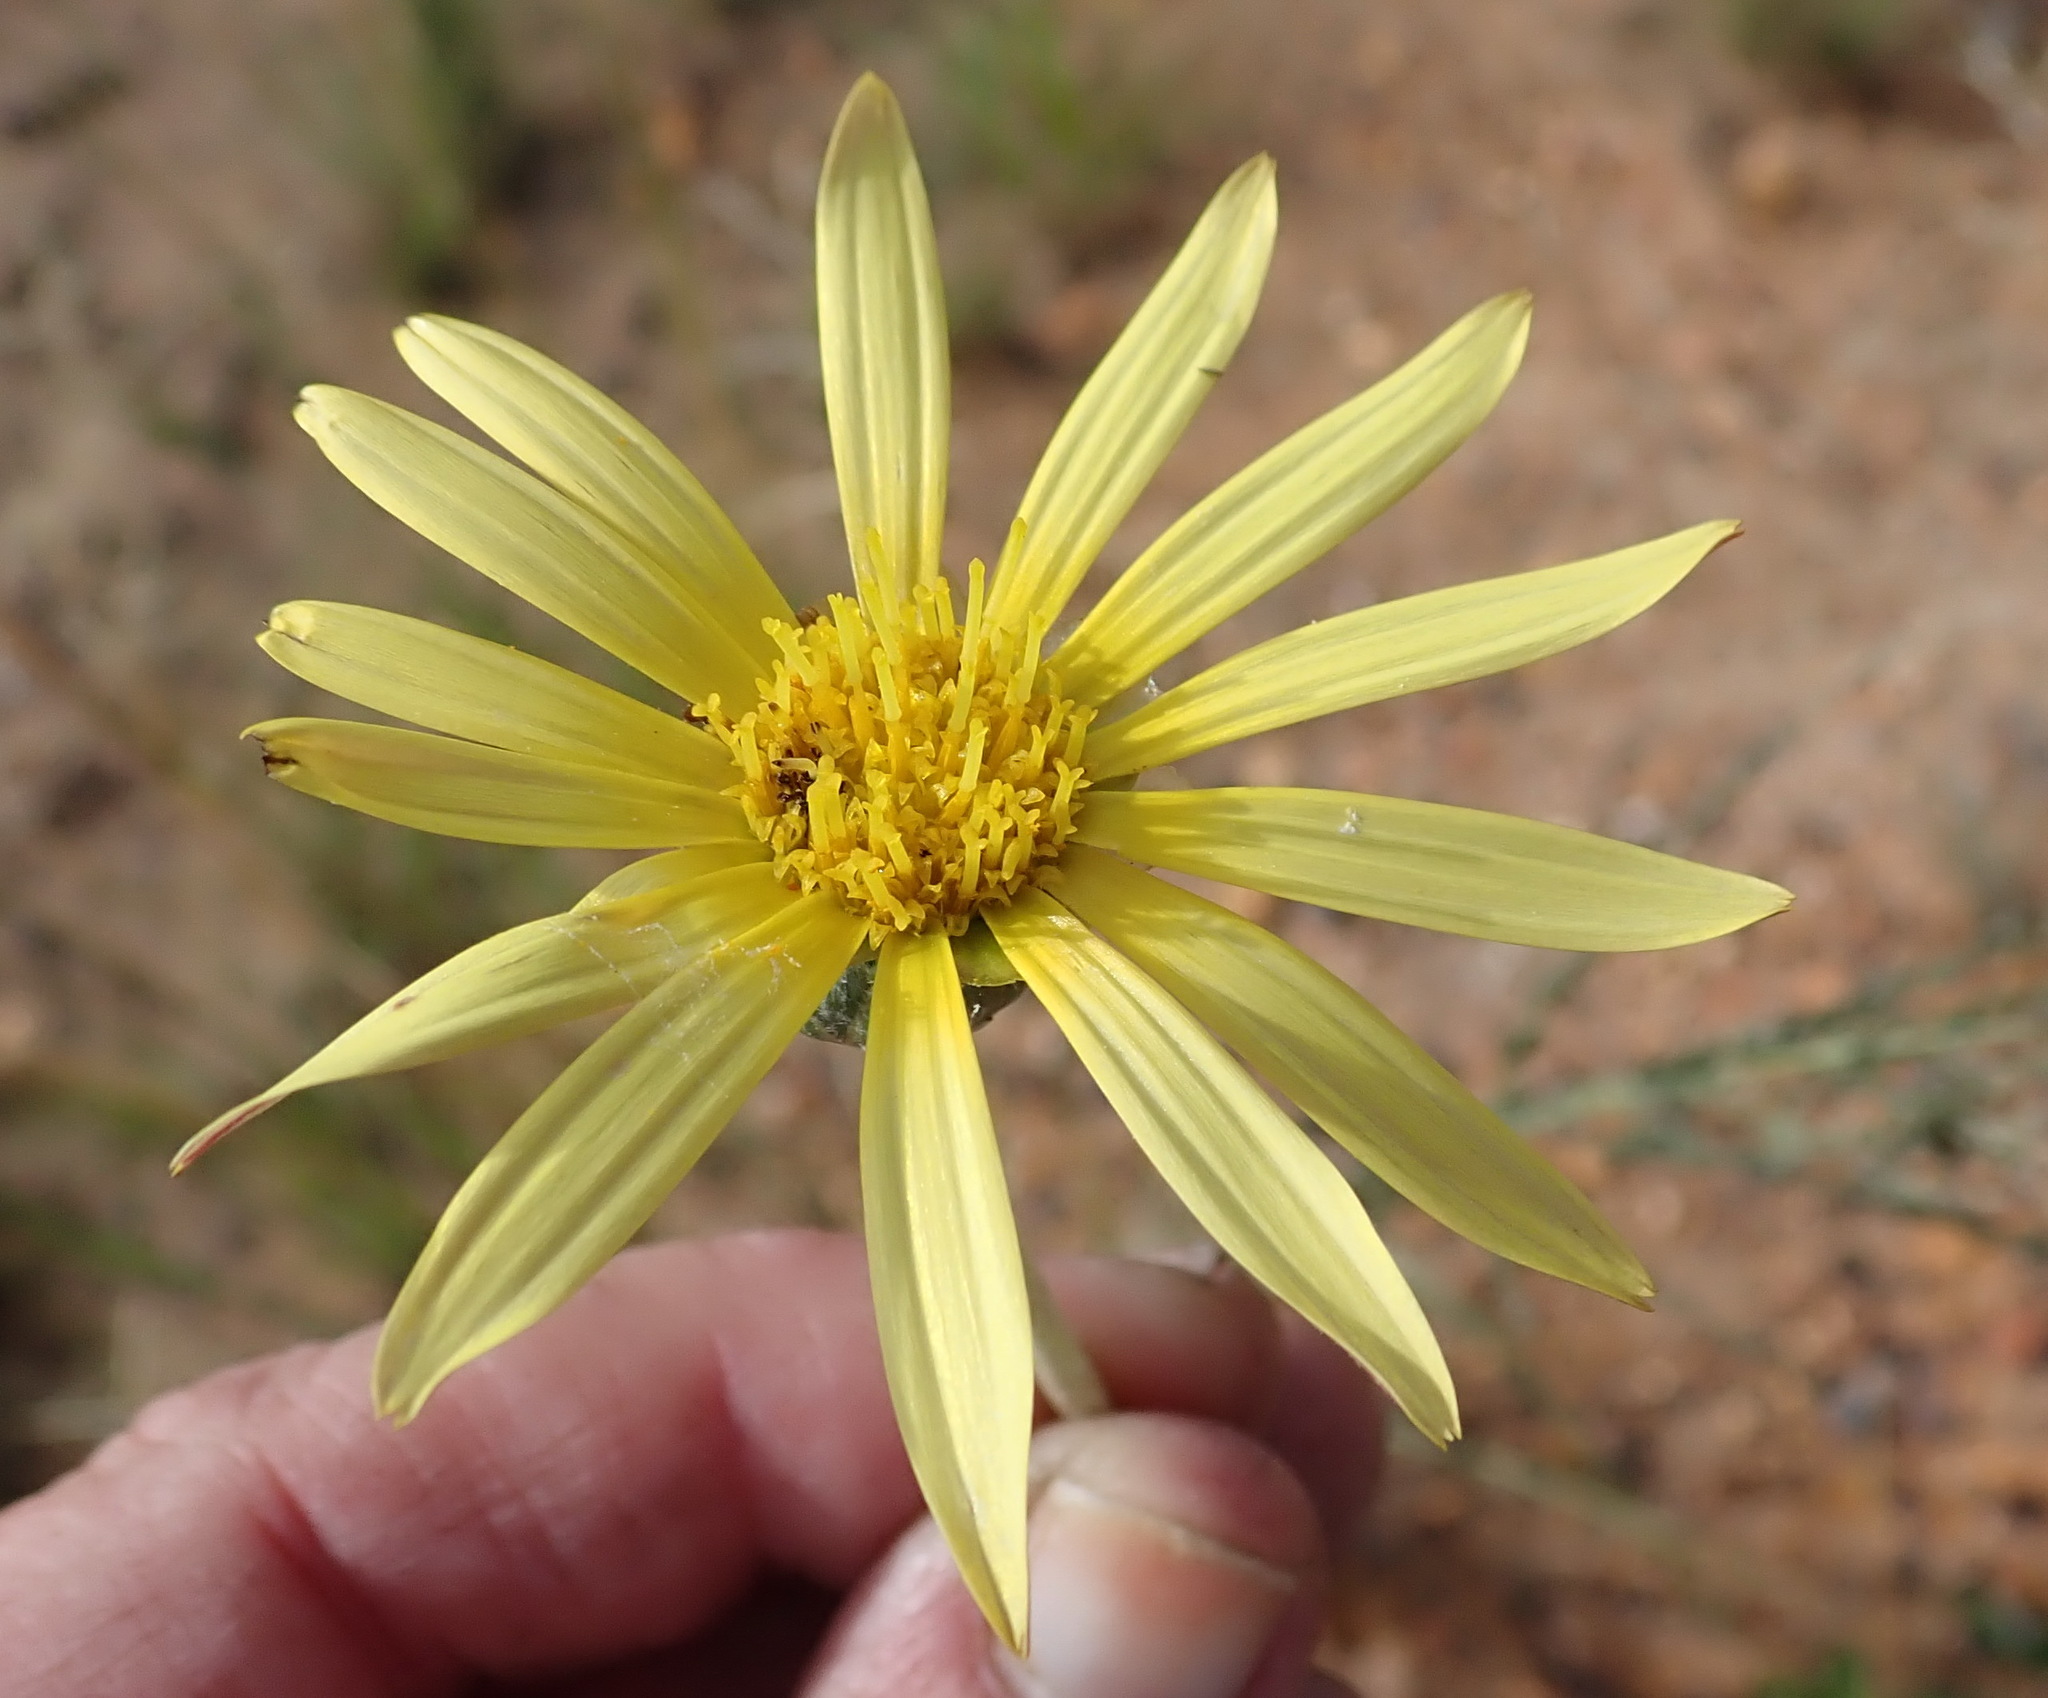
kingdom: Plantae
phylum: Tracheophyta
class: Magnoliopsida
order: Asterales
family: Asteraceae
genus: Haplocarpha
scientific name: Haplocarpha lyrata
